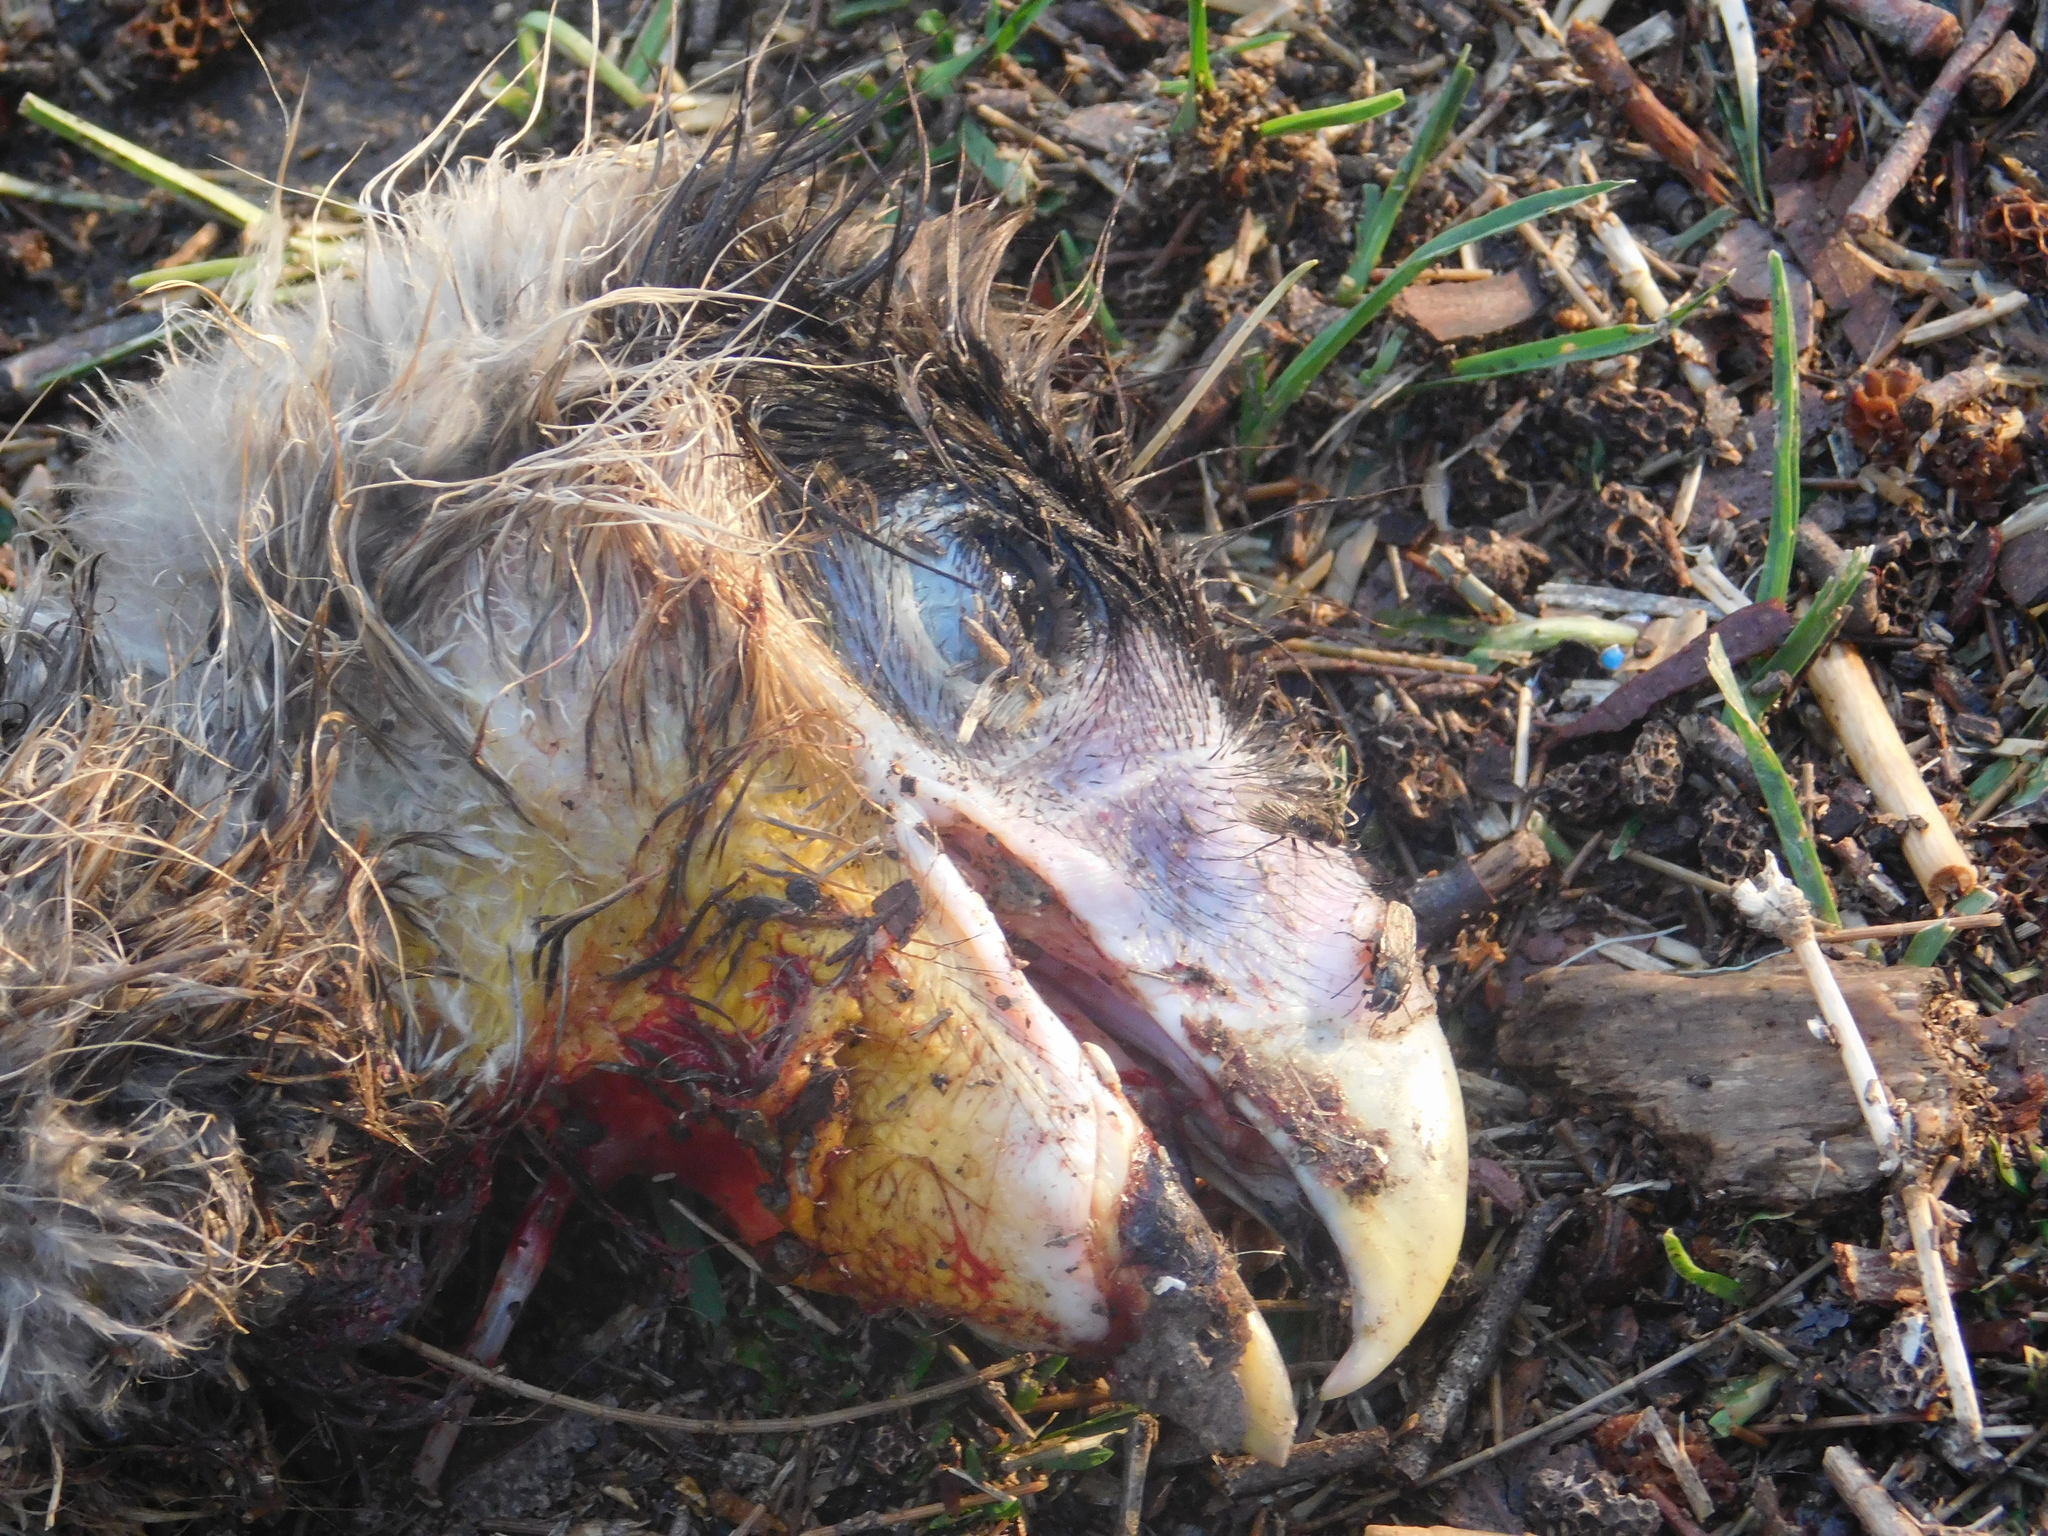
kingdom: Animalia
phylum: Chordata
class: Aves
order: Falconiformes
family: Falconidae
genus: Caracara
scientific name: Caracara plancus
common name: Southern caracara
